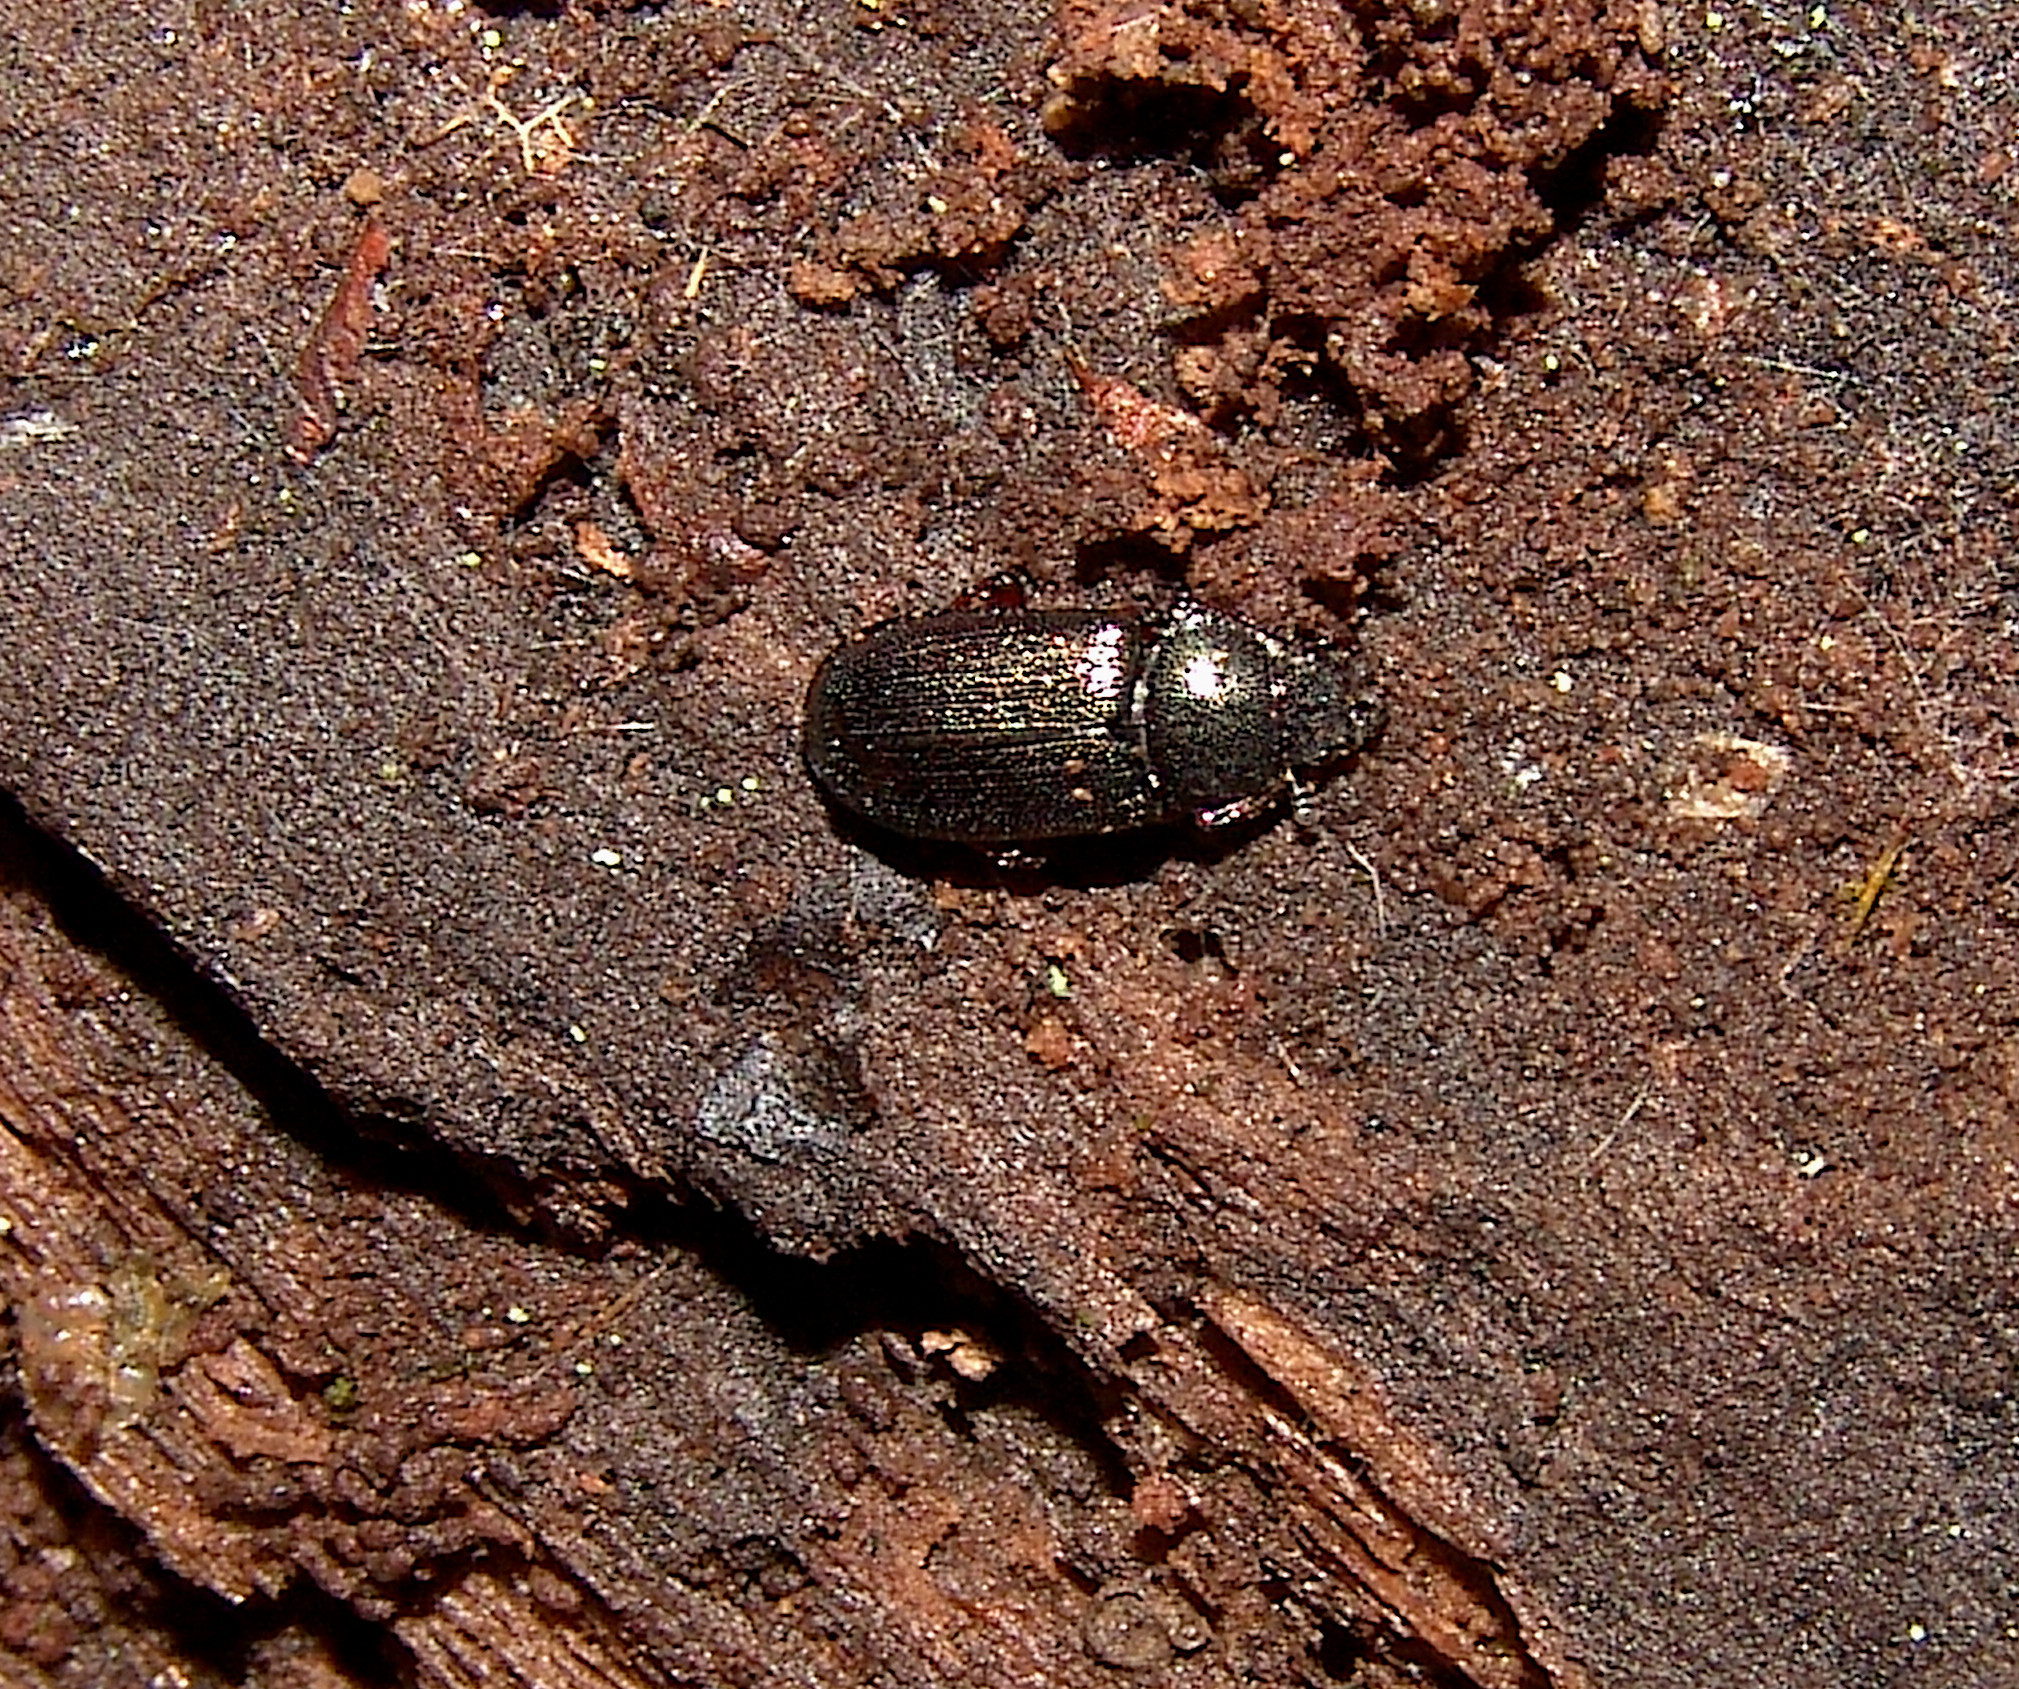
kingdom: Animalia
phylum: Arthropoda
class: Insecta
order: Coleoptera
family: Lucanidae
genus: Platycerus
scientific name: Platycerus quercus
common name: Oak stag beetle
